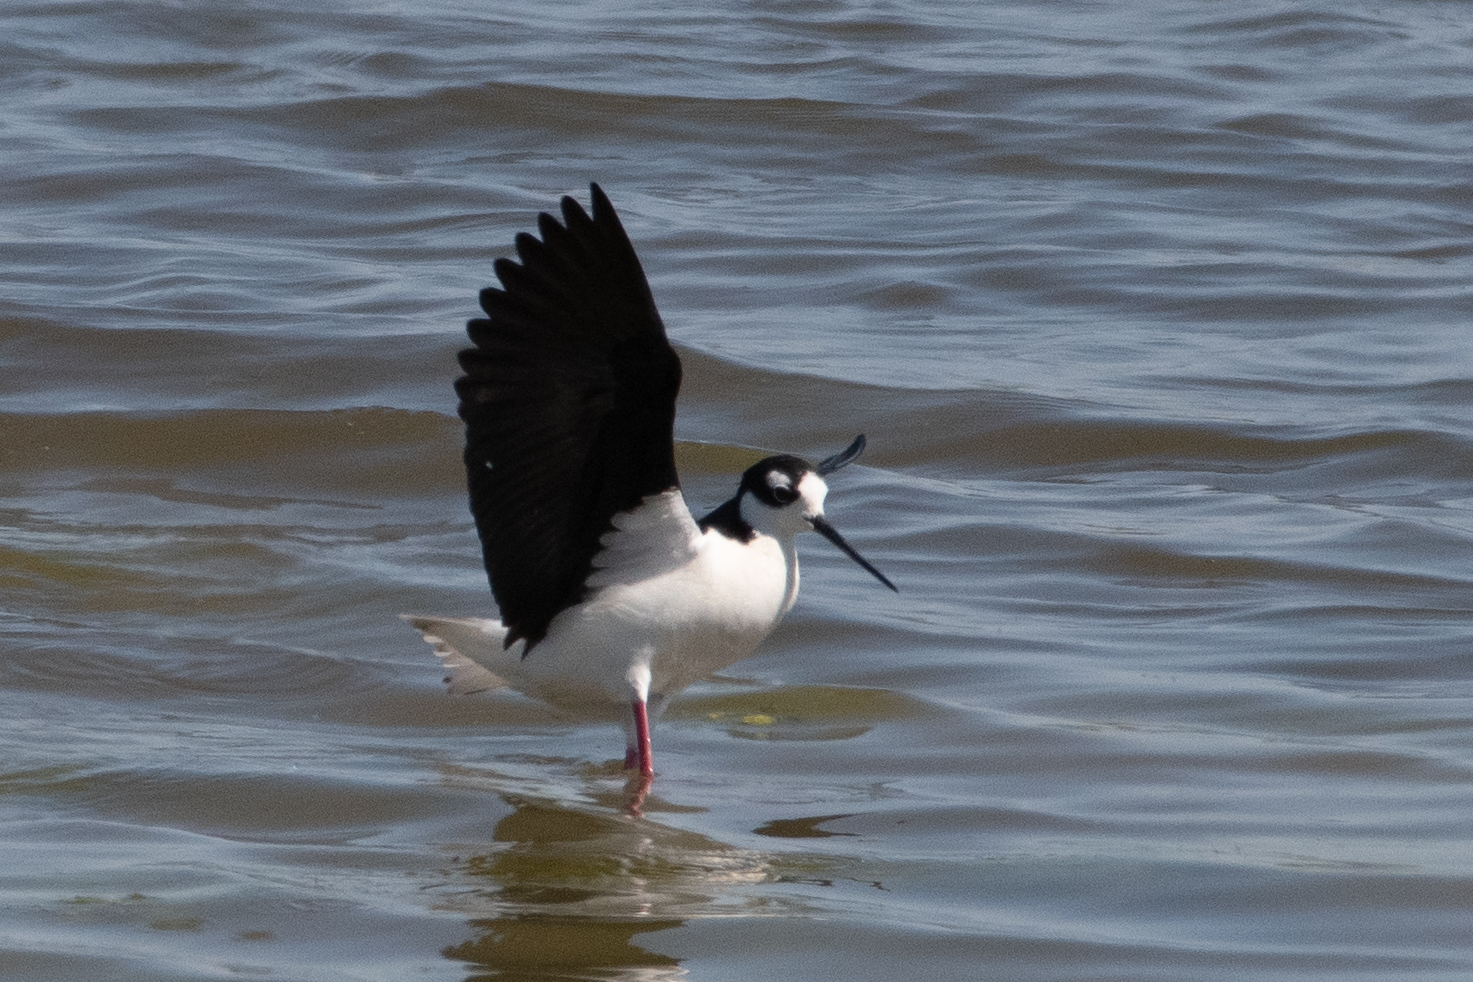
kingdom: Animalia
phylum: Chordata
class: Aves
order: Charadriiformes
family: Recurvirostridae
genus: Himantopus
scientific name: Himantopus mexicanus
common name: Black-necked stilt
